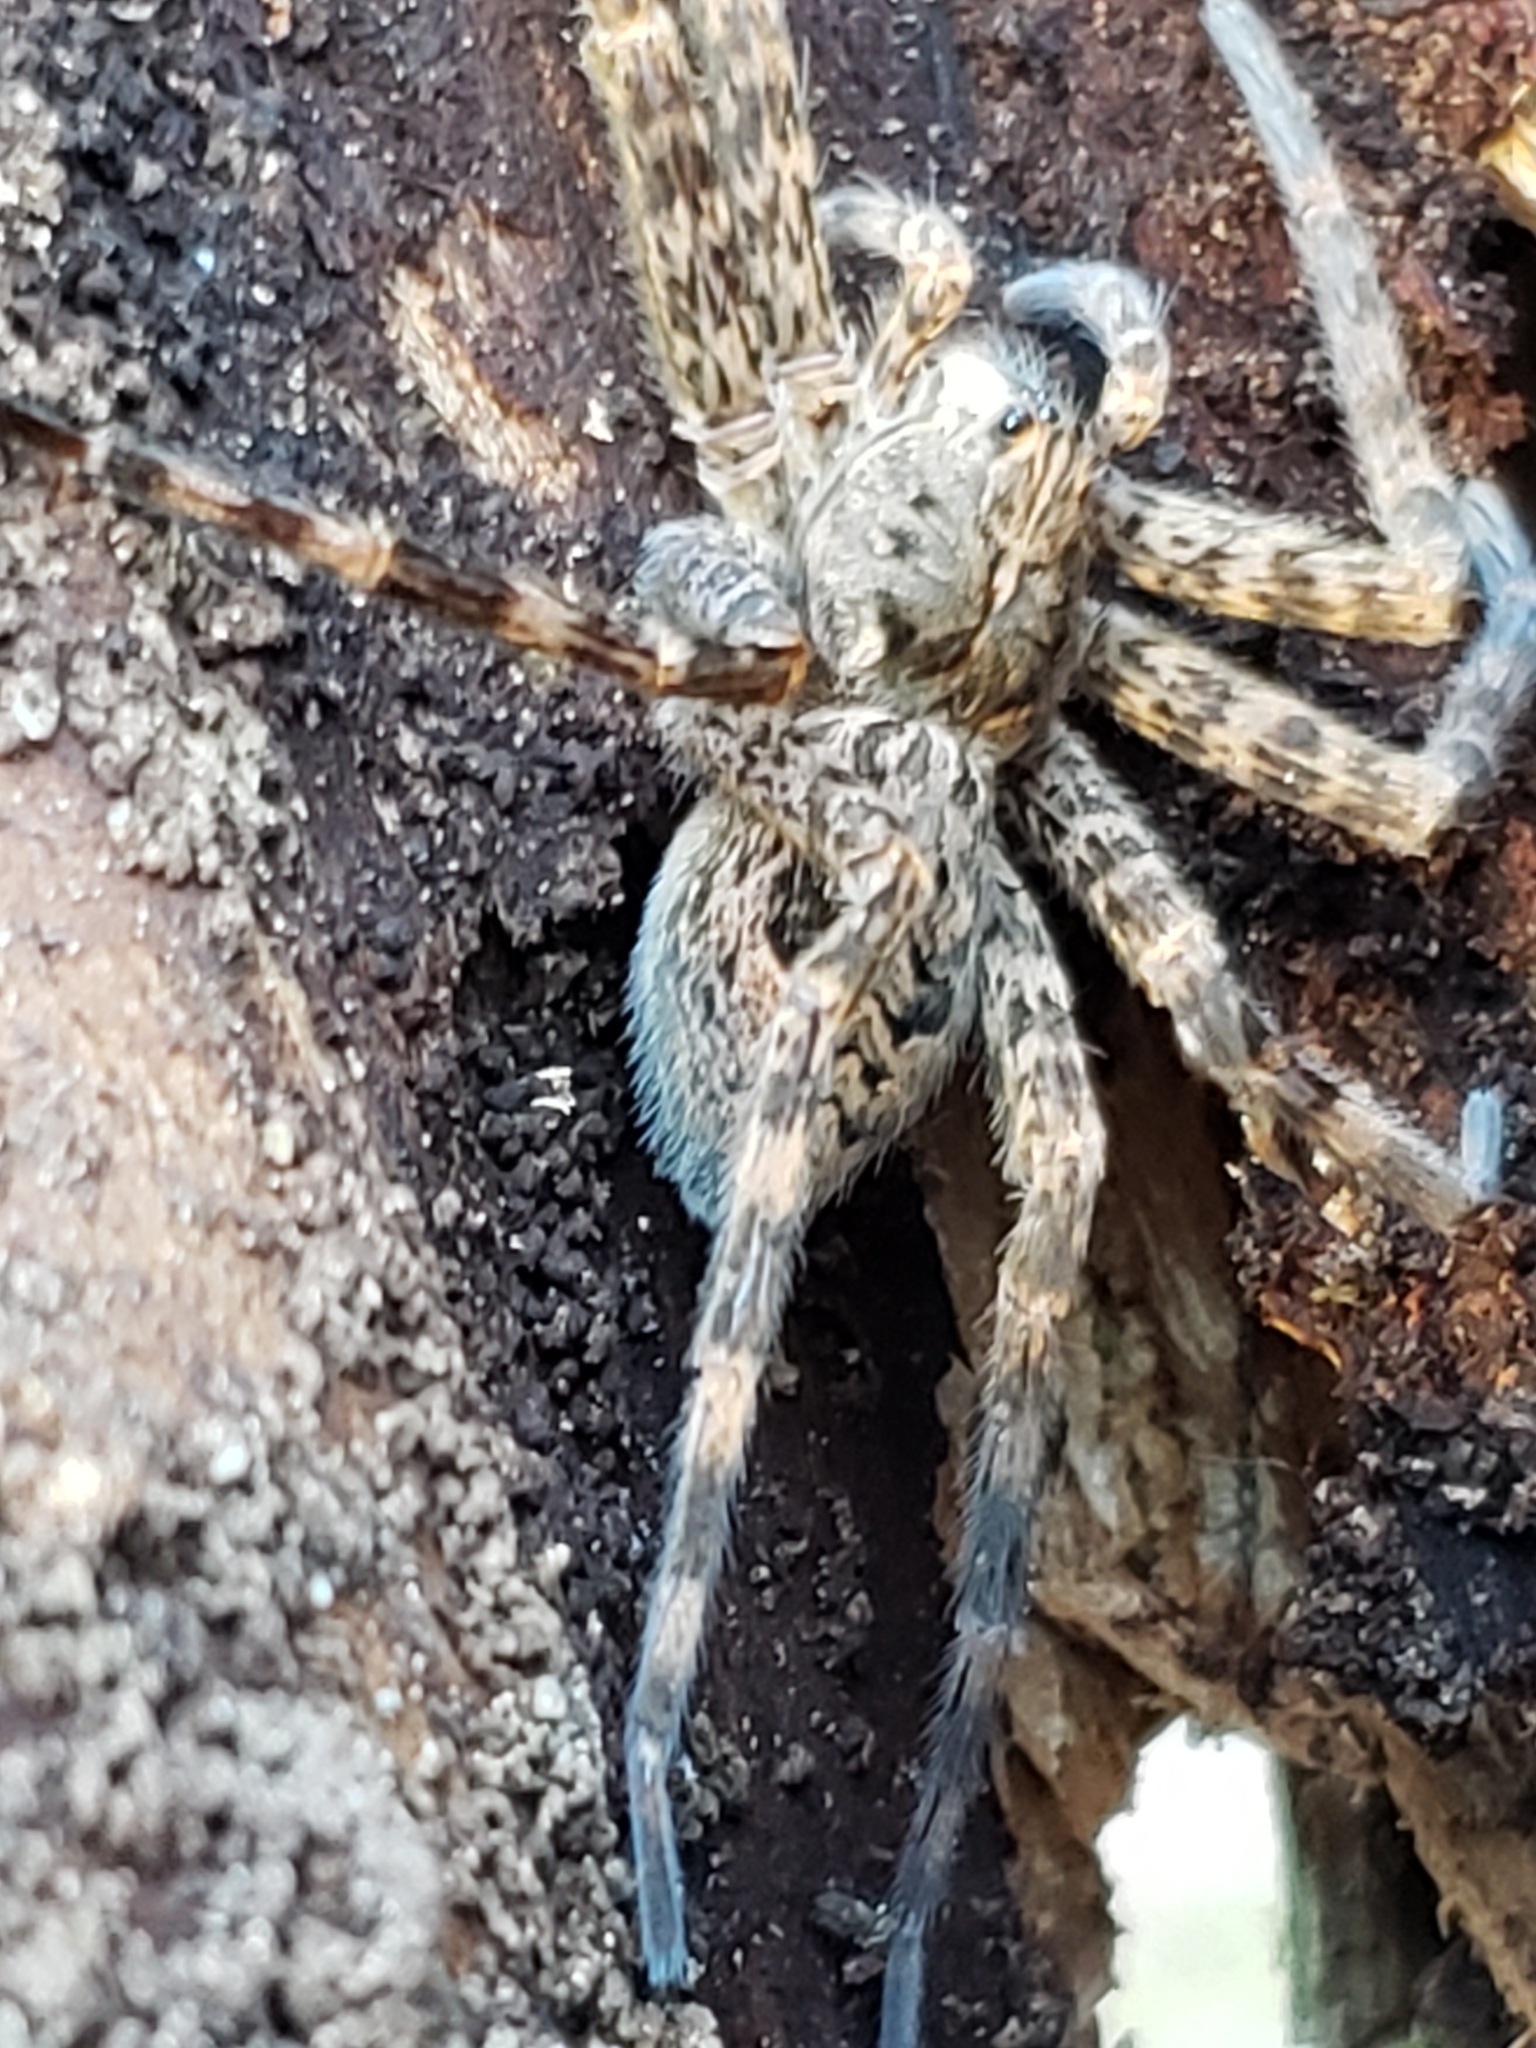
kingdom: Animalia
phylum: Arthropoda
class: Arachnida
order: Araneae
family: Pisauridae
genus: Dolomedes
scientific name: Dolomedes tenebrosus
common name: Dark fishing spider
